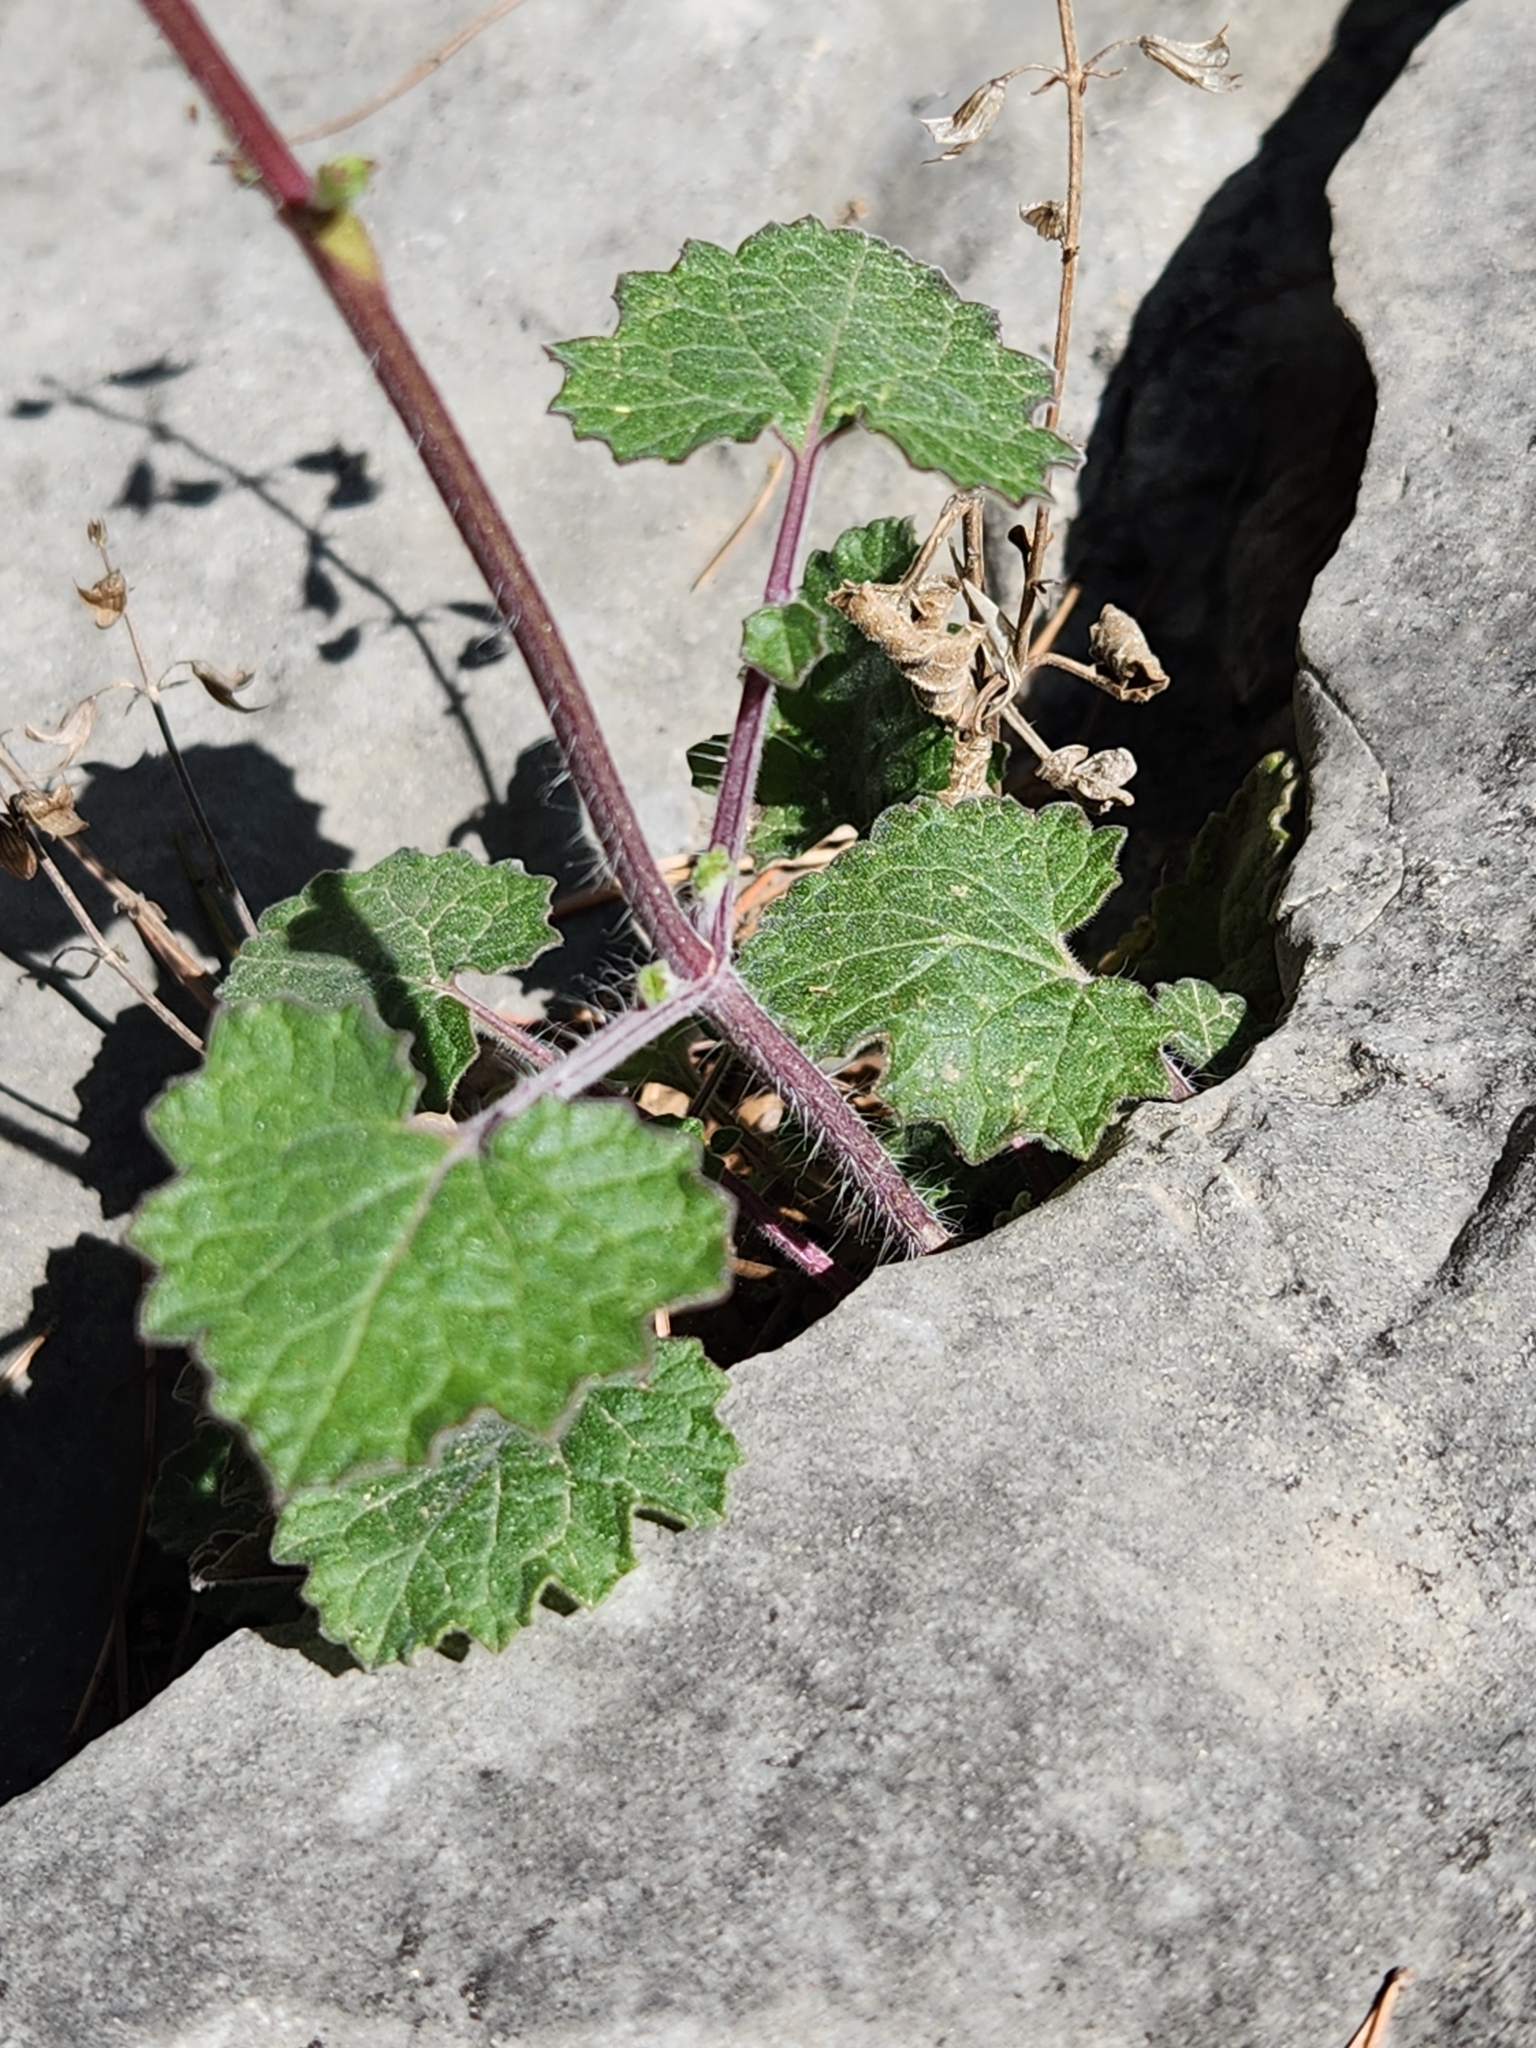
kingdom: Plantae
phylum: Tracheophyta
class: Magnoliopsida
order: Lamiales
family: Lamiaceae
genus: Salvia
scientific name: Salvia roemeriana
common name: Cedar sage
